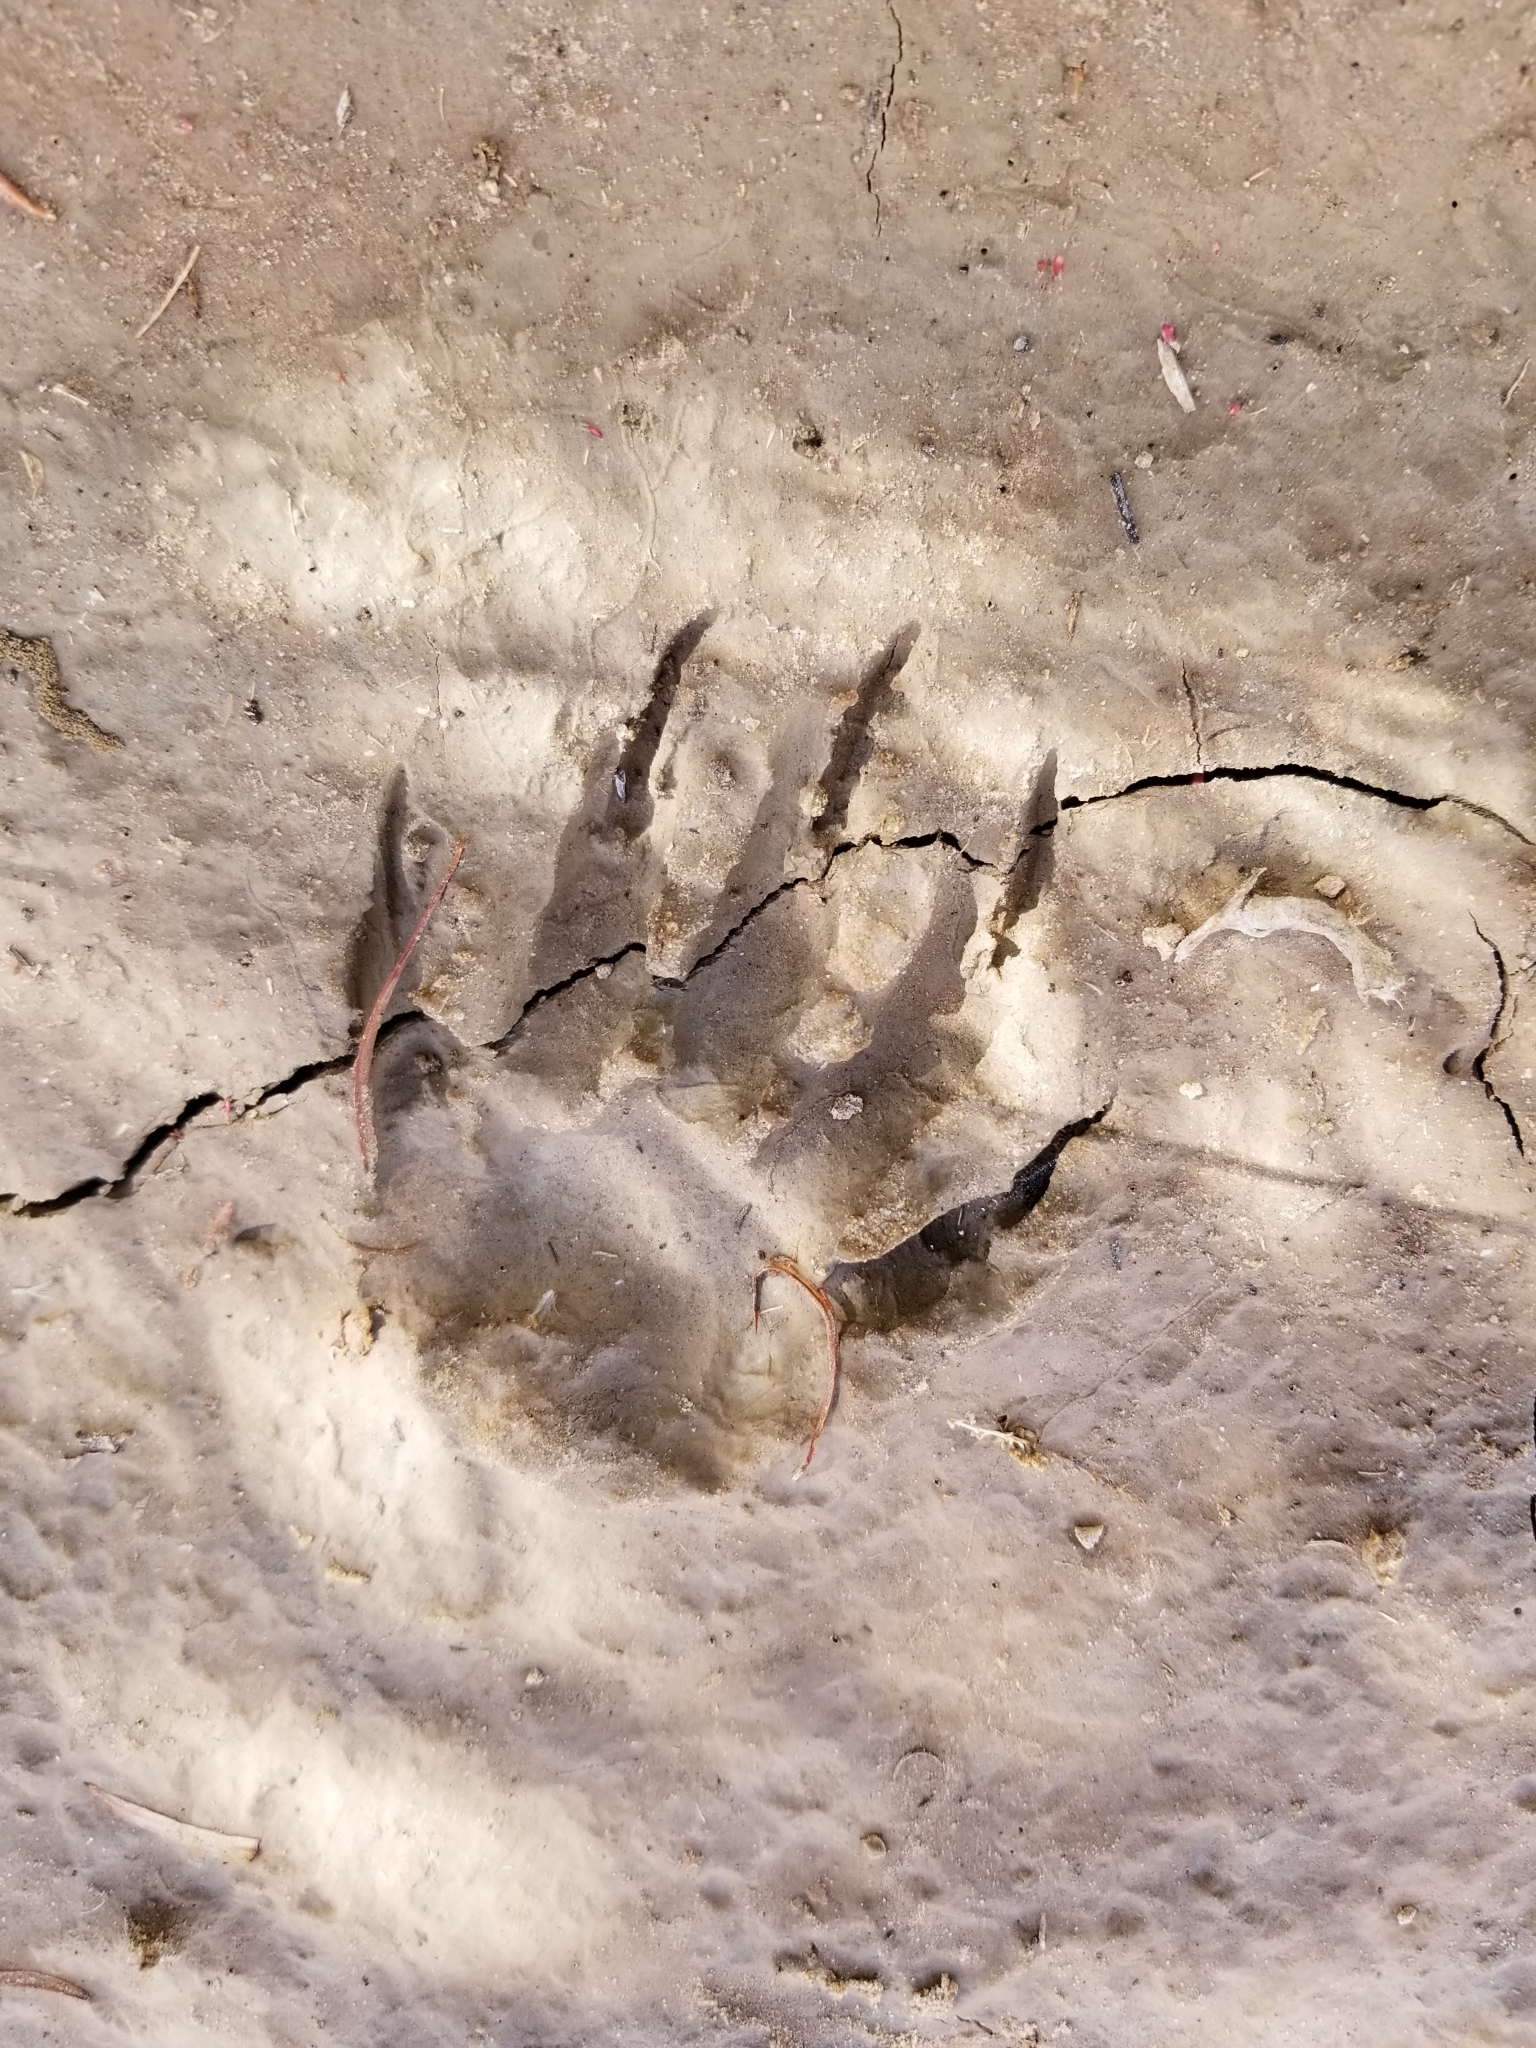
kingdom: Animalia
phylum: Chordata
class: Mammalia
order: Carnivora
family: Procyonidae
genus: Procyon
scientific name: Procyon lotor
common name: Raccoon
